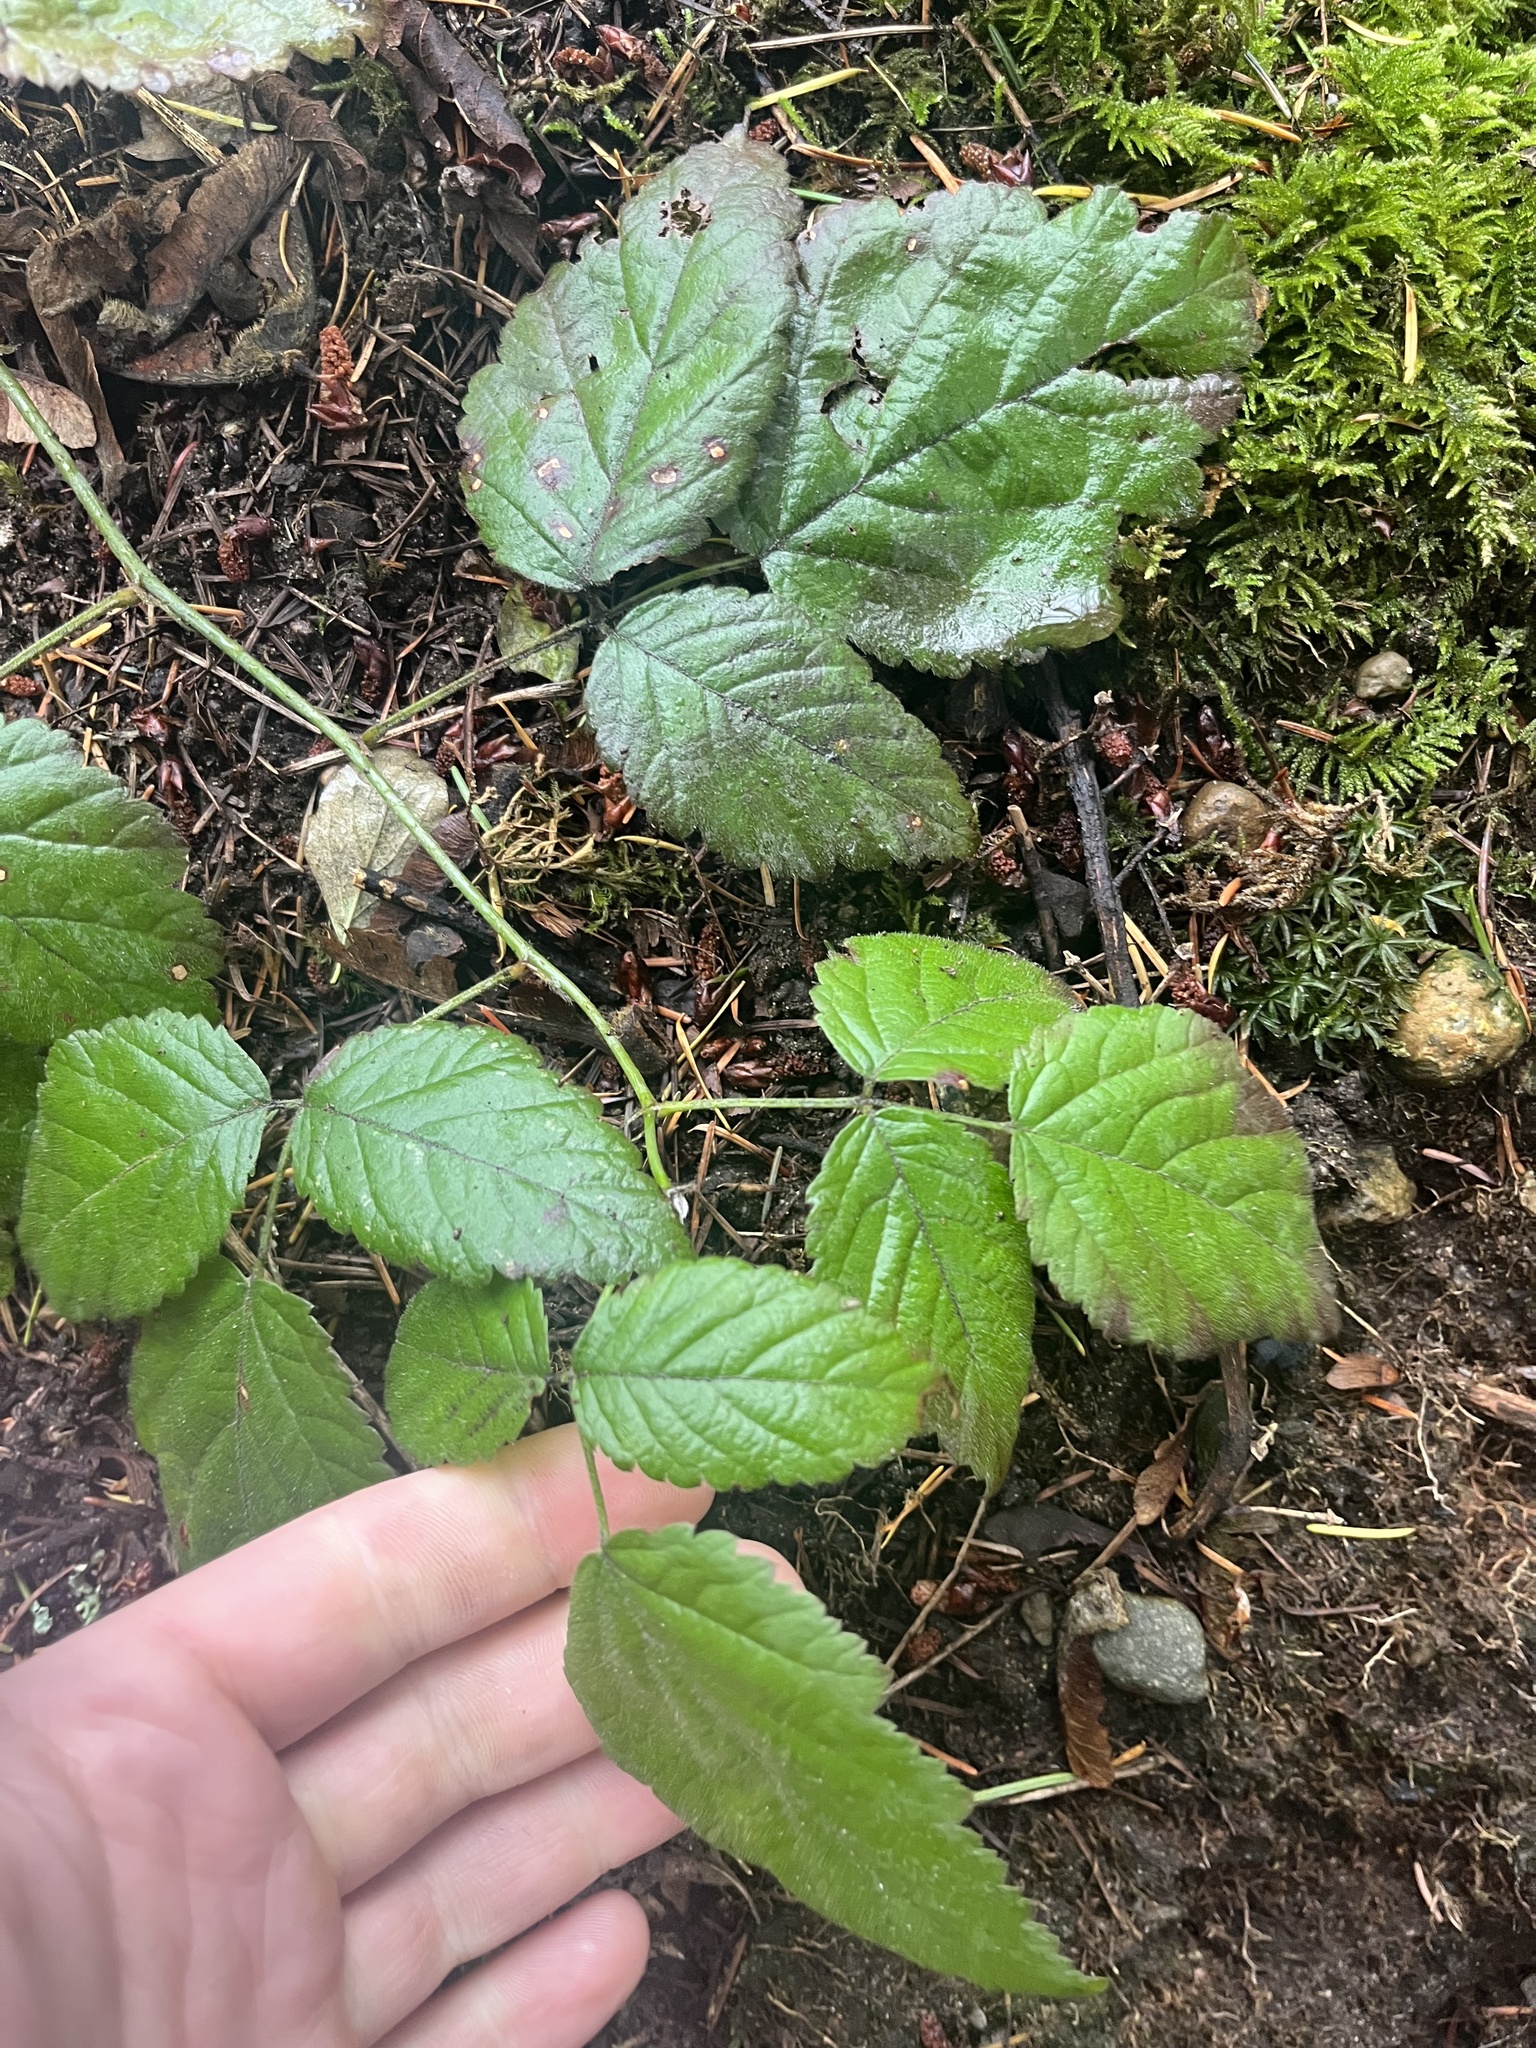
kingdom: Plantae
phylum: Tracheophyta
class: Magnoliopsida
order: Rosales
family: Rosaceae
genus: Rubus
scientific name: Rubus ursinus
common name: Pacific blackberry
